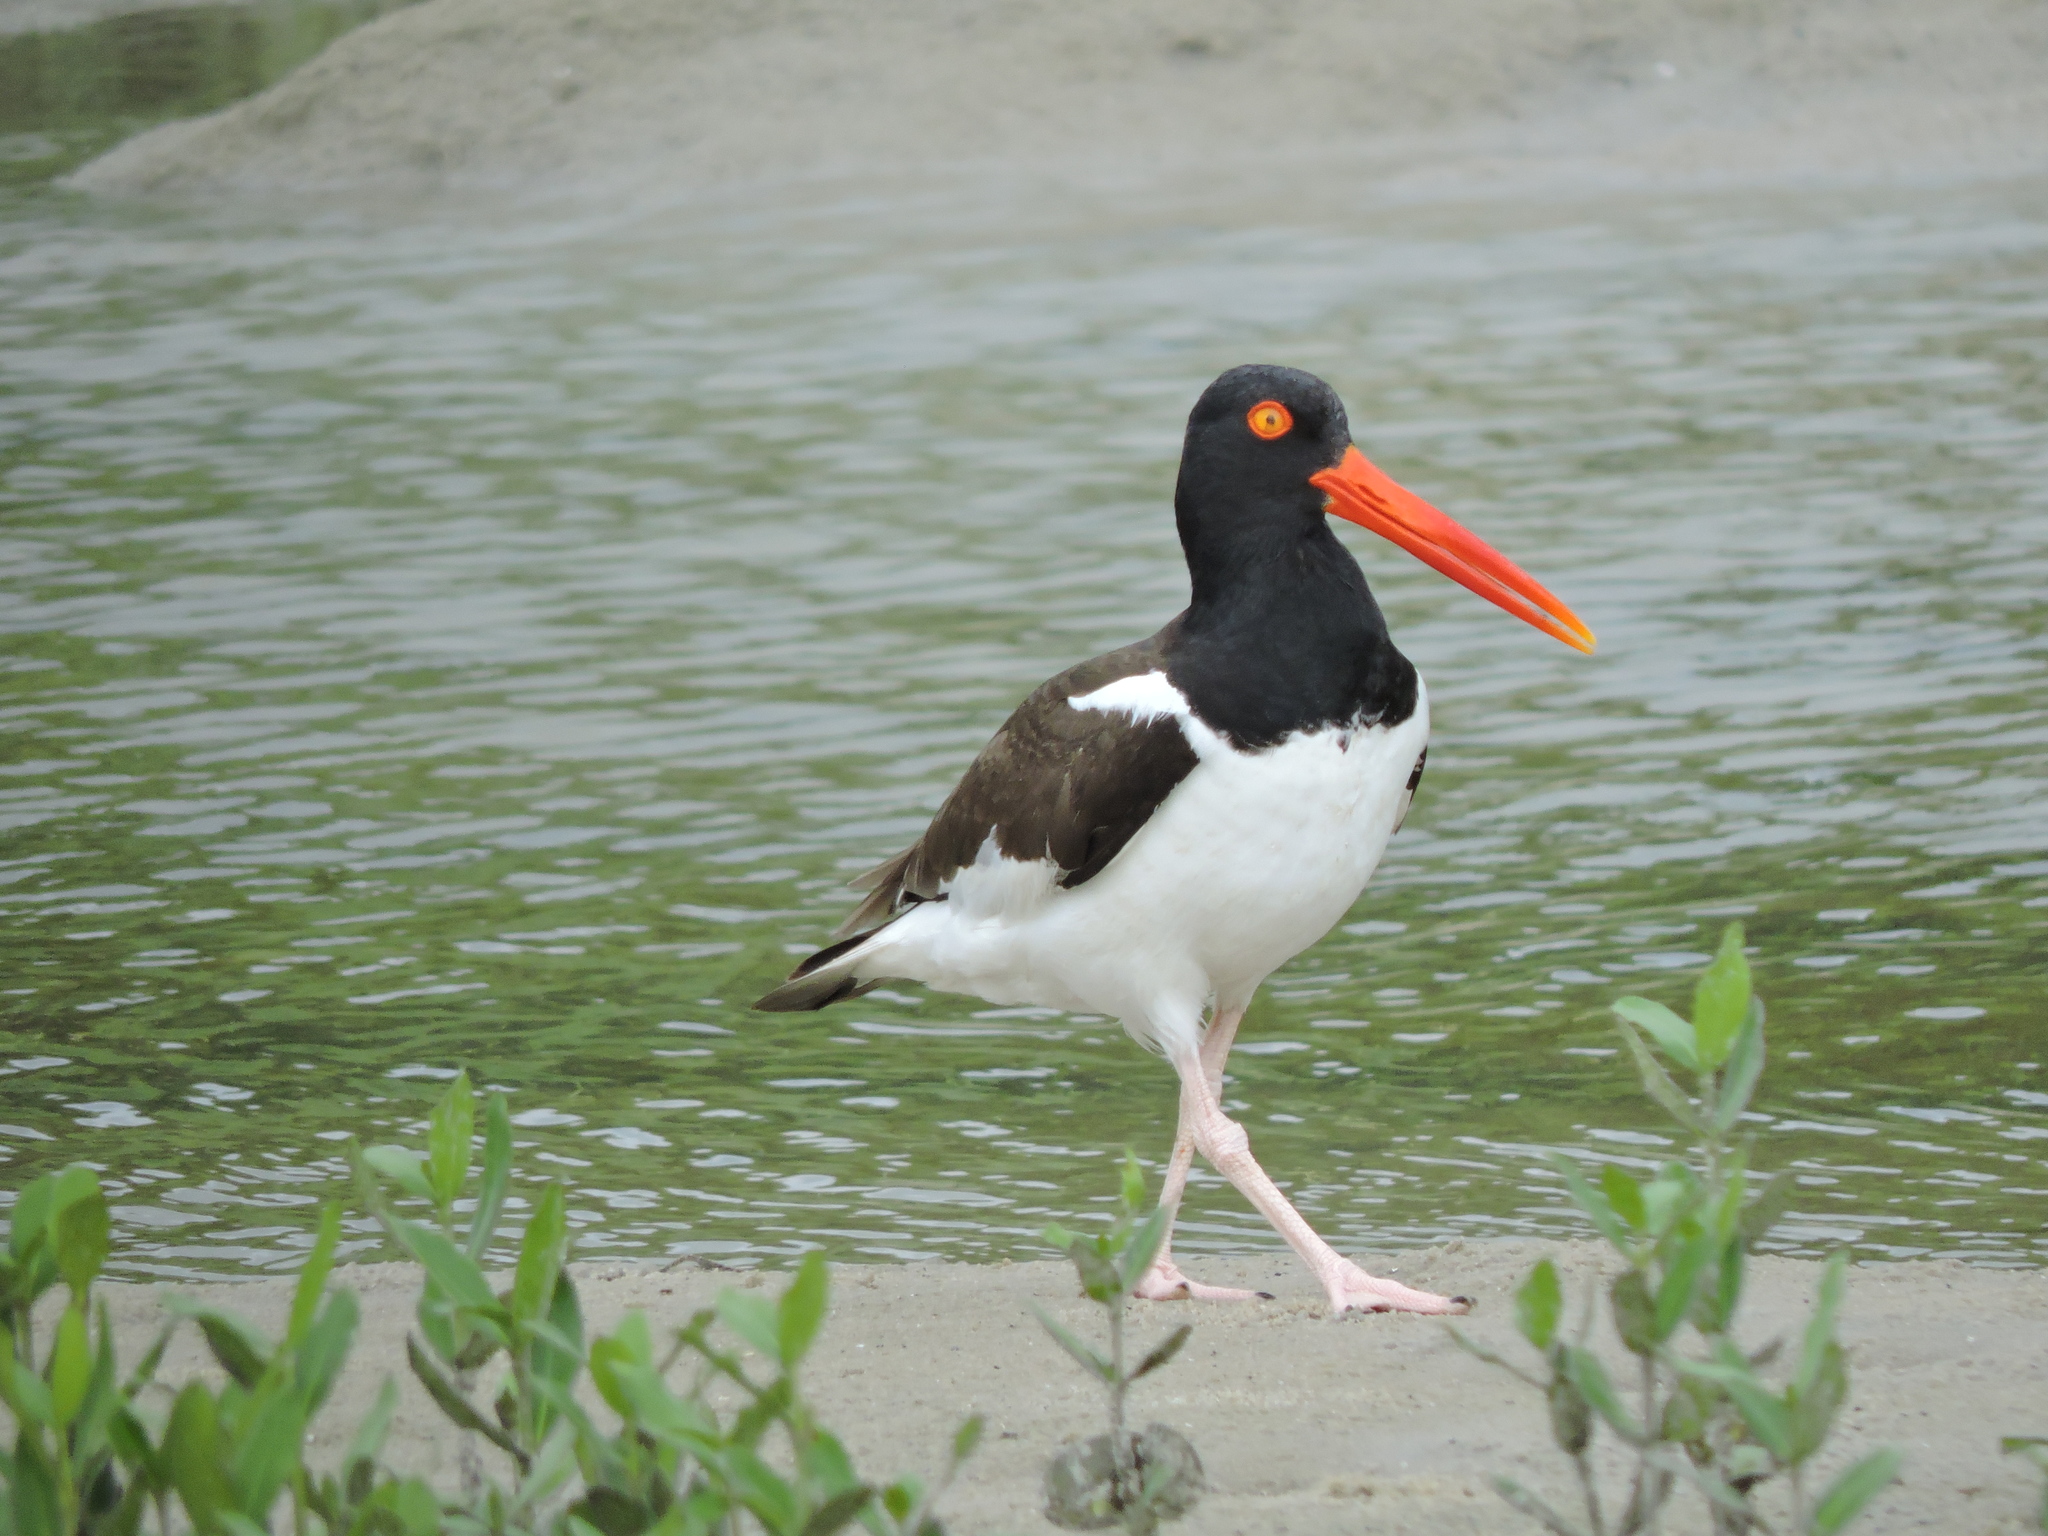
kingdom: Animalia
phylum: Chordata
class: Aves
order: Charadriiformes
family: Haematopodidae
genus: Haematopus
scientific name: Haematopus palliatus
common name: American oystercatcher
